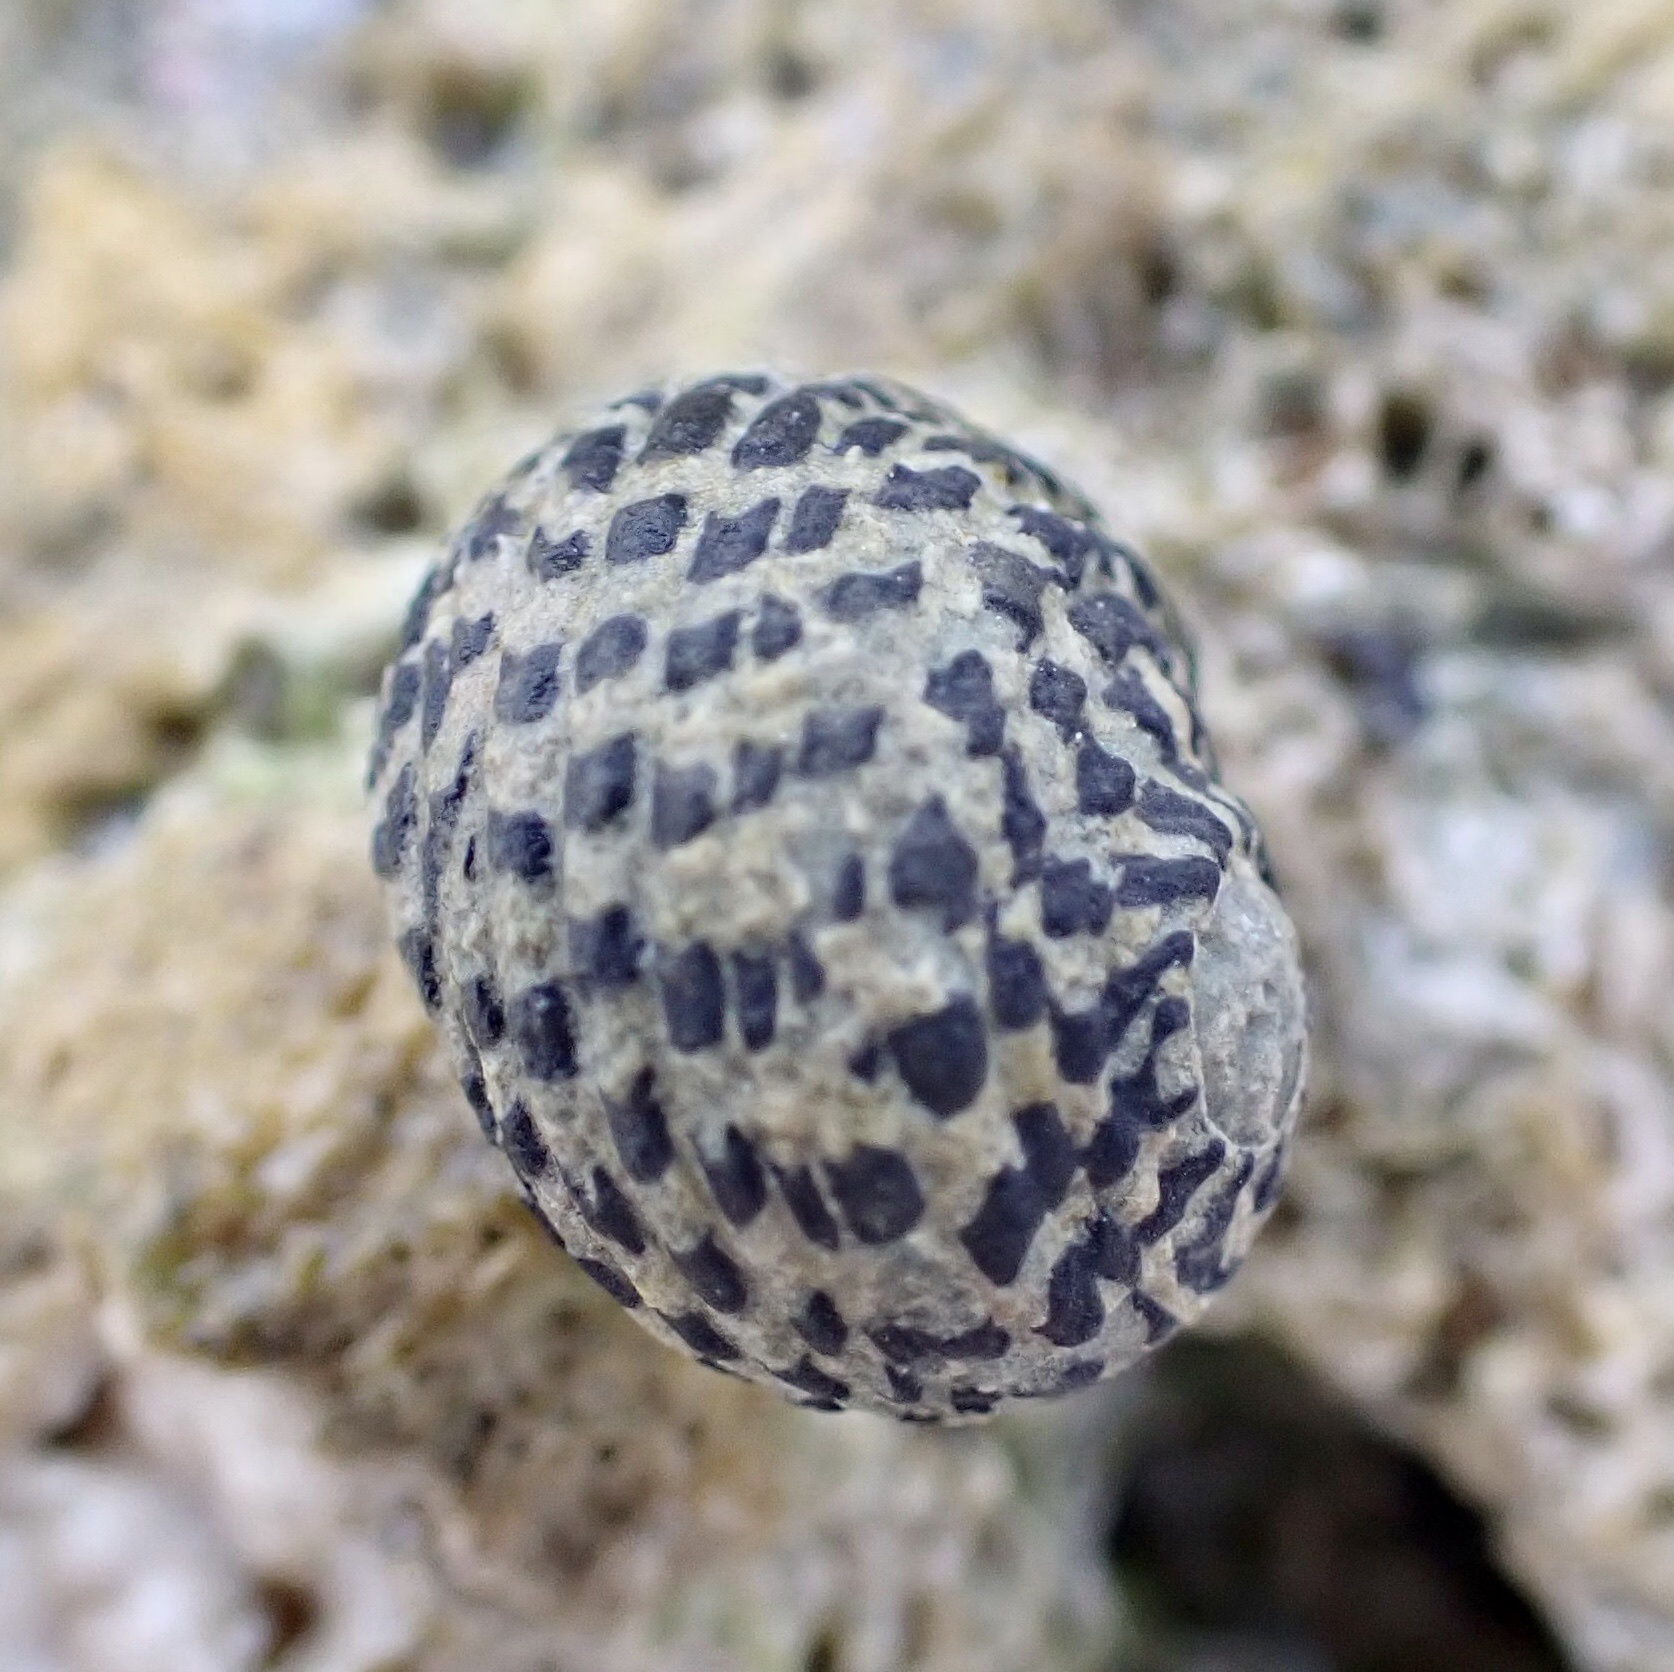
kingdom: Animalia
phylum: Mollusca
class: Gastropoda
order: Cycloneritida
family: Neritidae
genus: Nerita
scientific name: Nerita tessellata
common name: Checkered nerite
